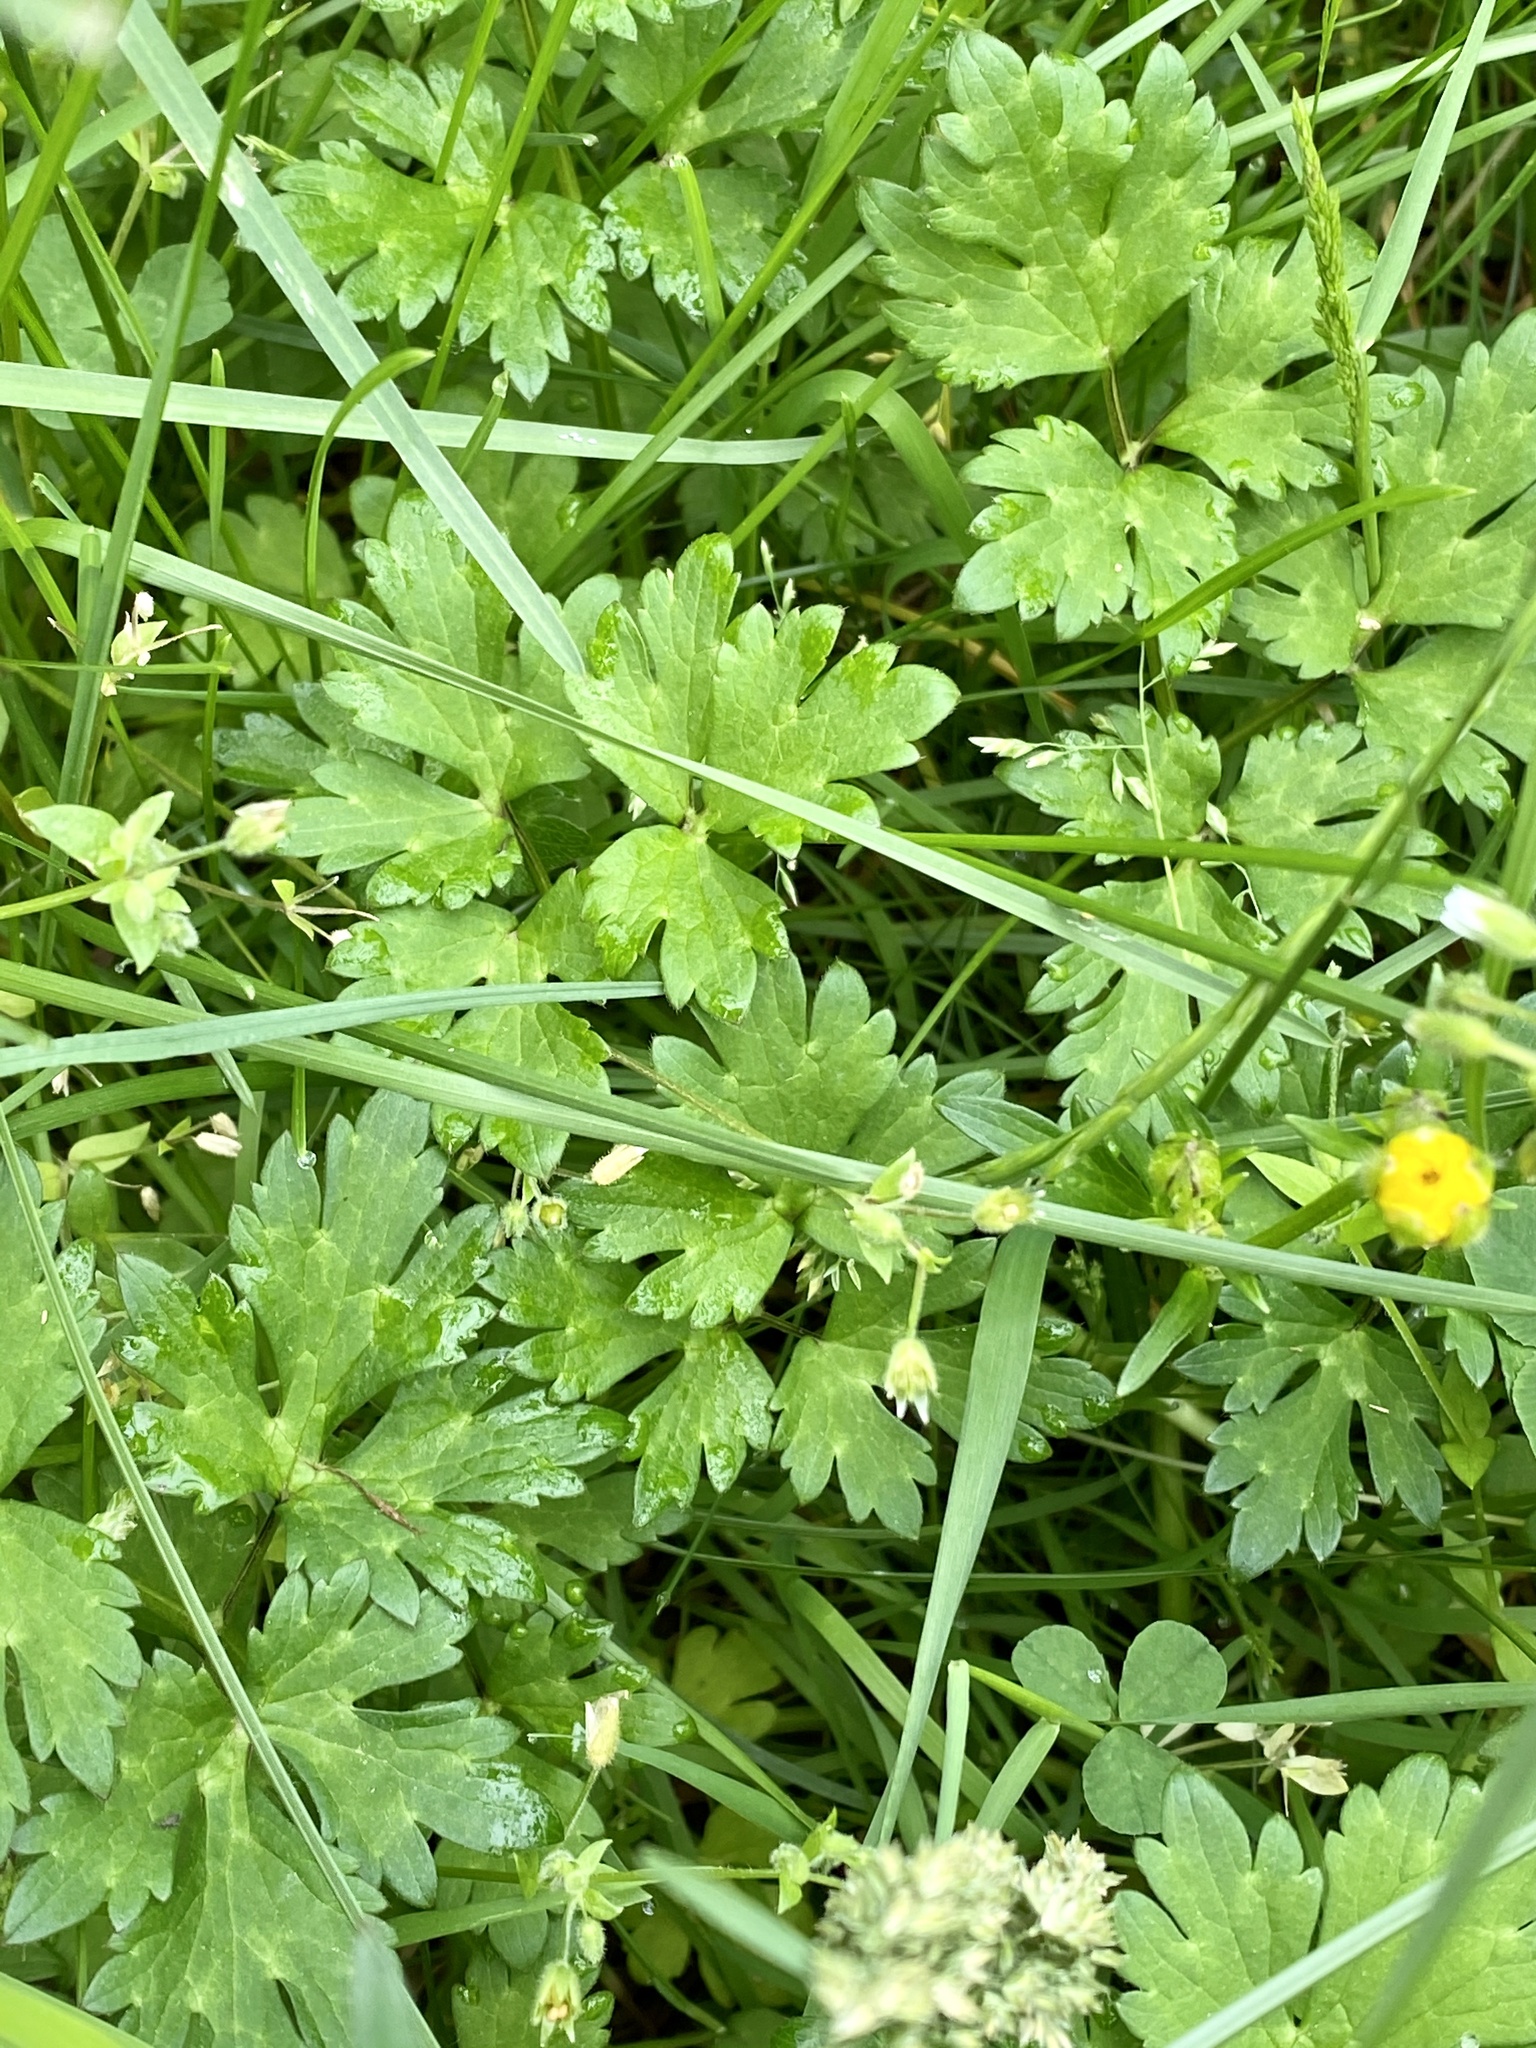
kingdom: Plantae
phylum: Tracheophyta
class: Magnoliopsida
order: Ranunculales
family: Ranunculaceae
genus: Ranunculus
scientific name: Ranunculus repens
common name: Creeping buttercup
